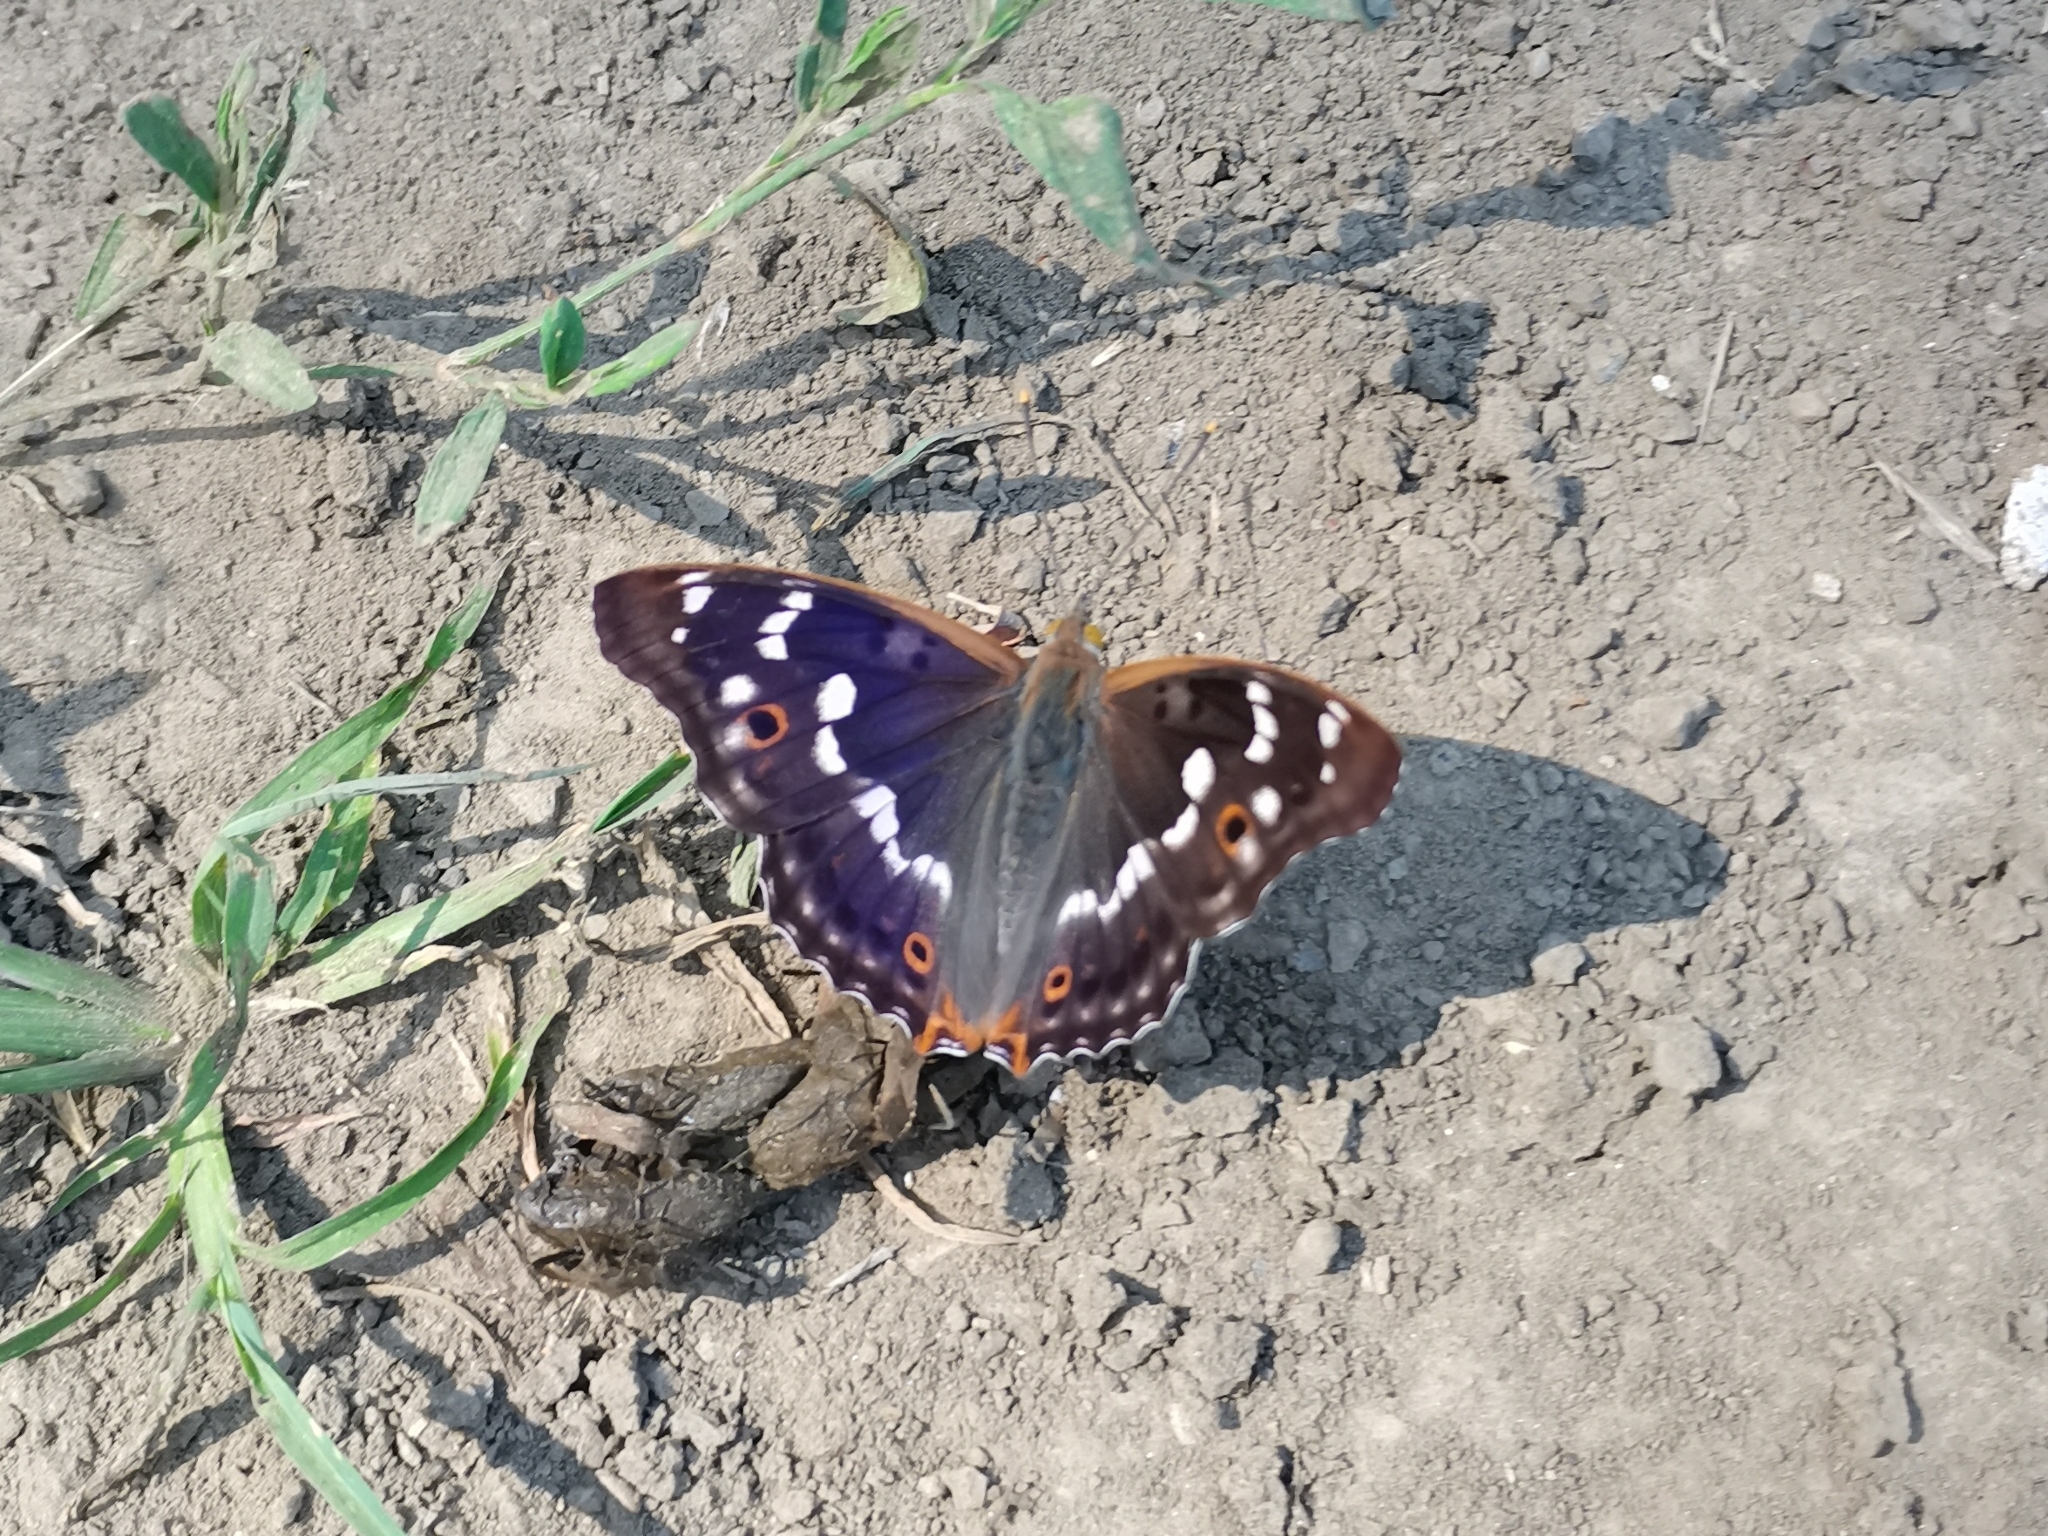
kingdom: Animalia
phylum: Arthropoda
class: Insecta
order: Lepidoptera
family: Nymphalidae
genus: Apatura
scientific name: Apatura ilia
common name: Lesser purple emperor
